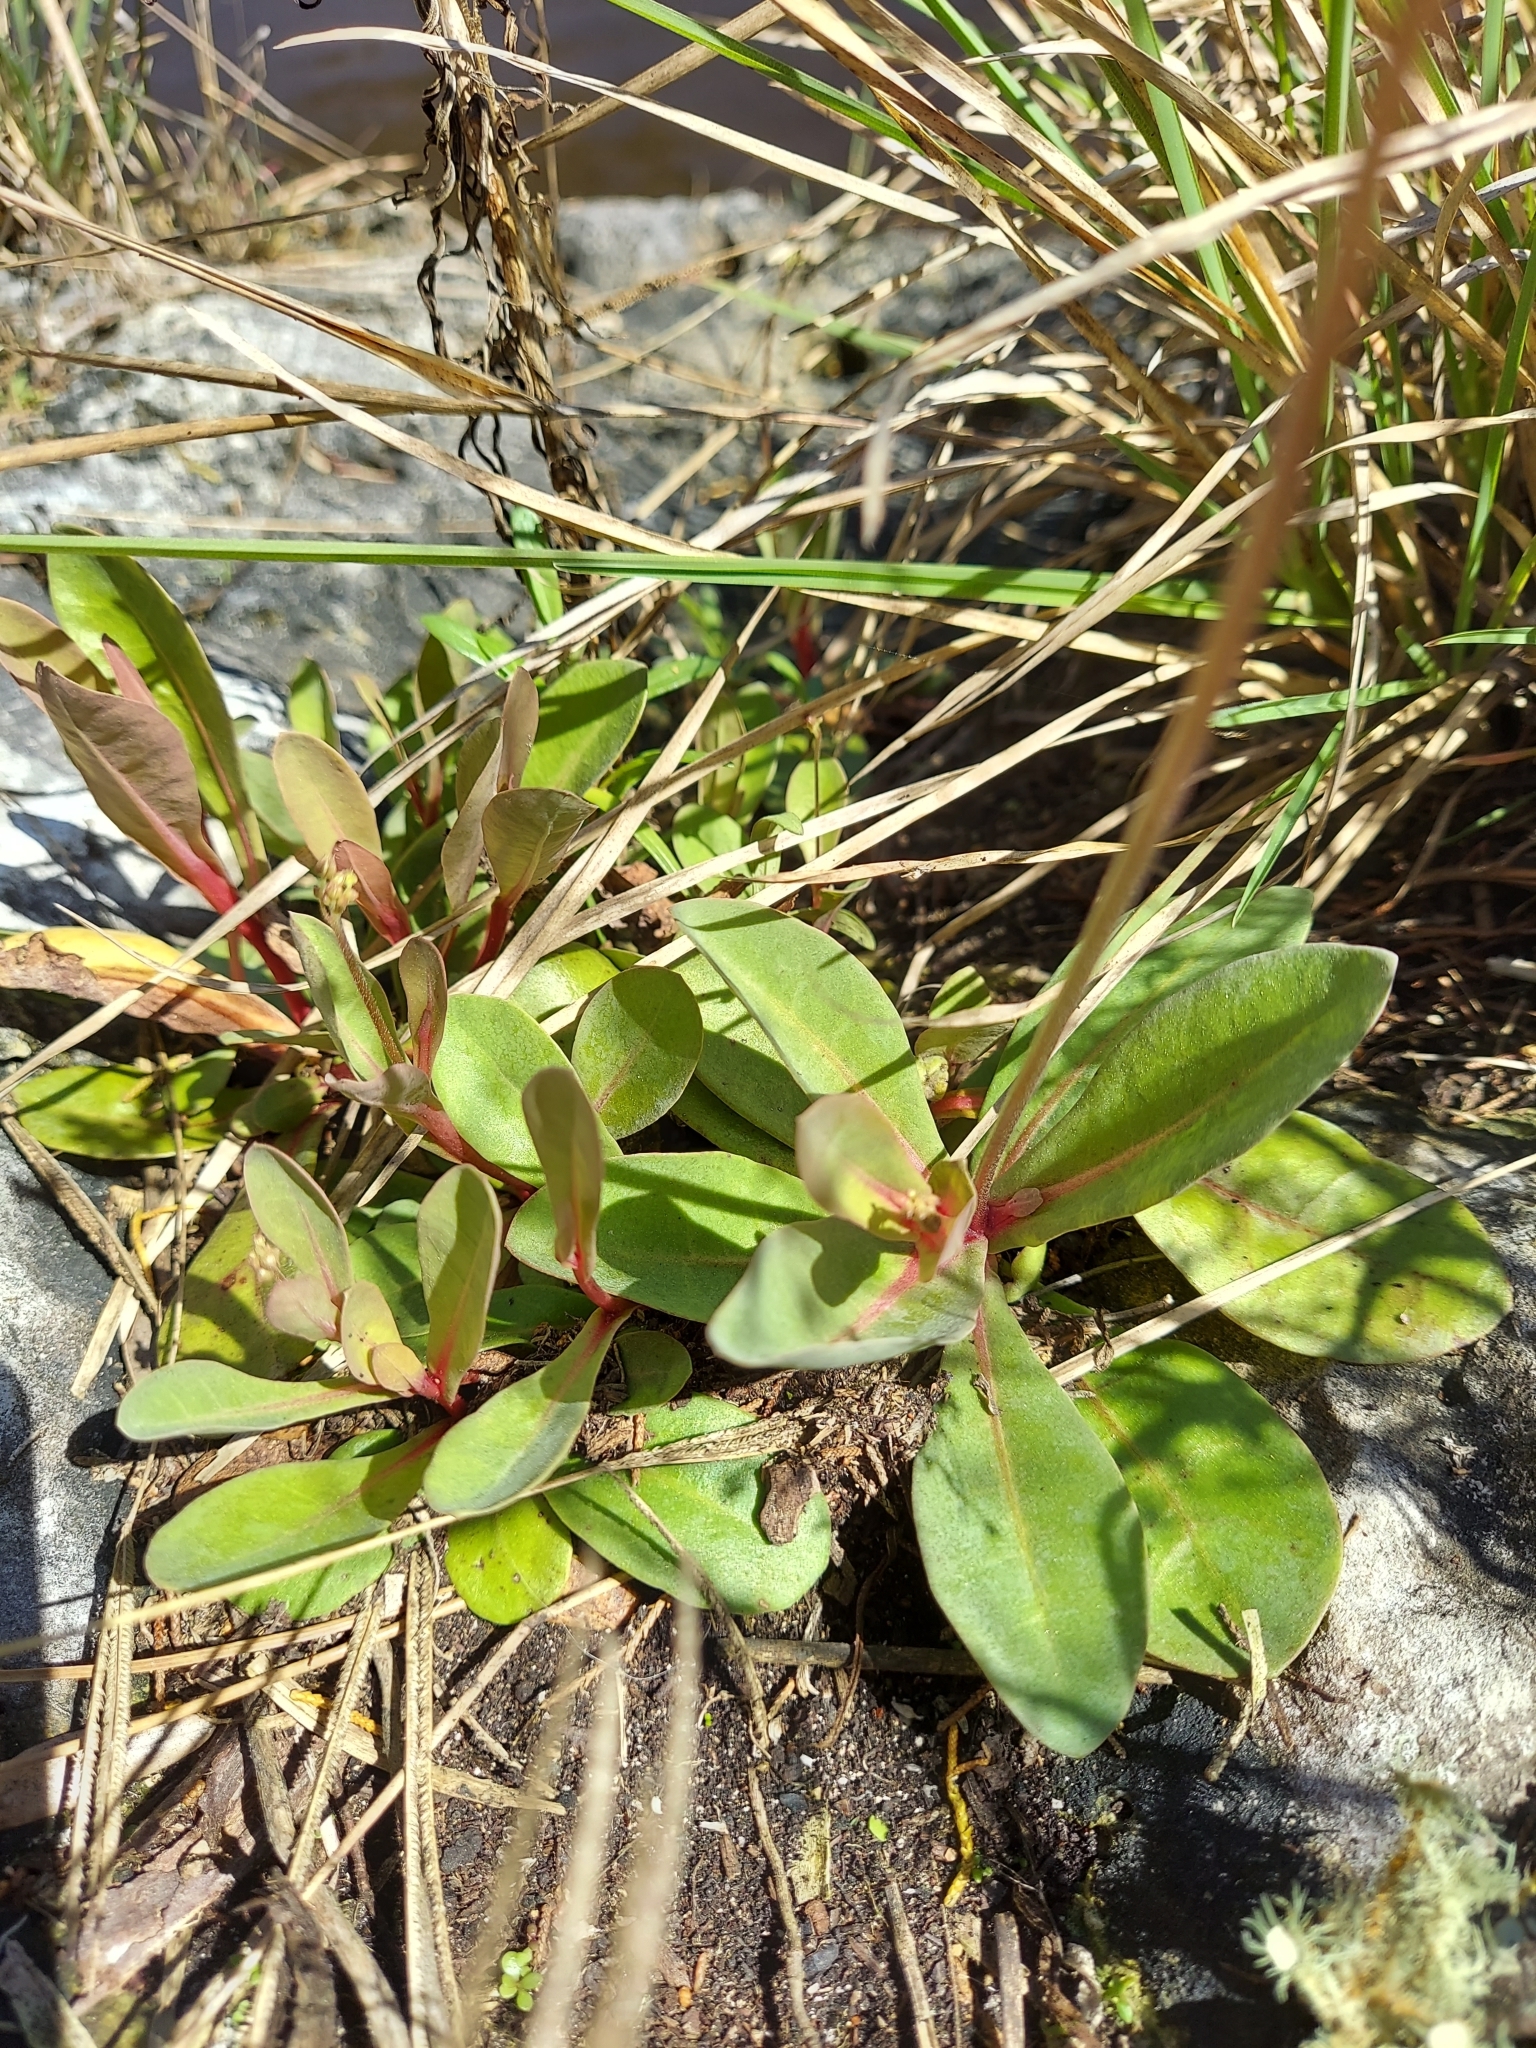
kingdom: Plantae
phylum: Tracheophyta
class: Magnoliopsida
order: Ericales
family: Primulaceae
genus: Samolus
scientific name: Samolus ebracteatus
